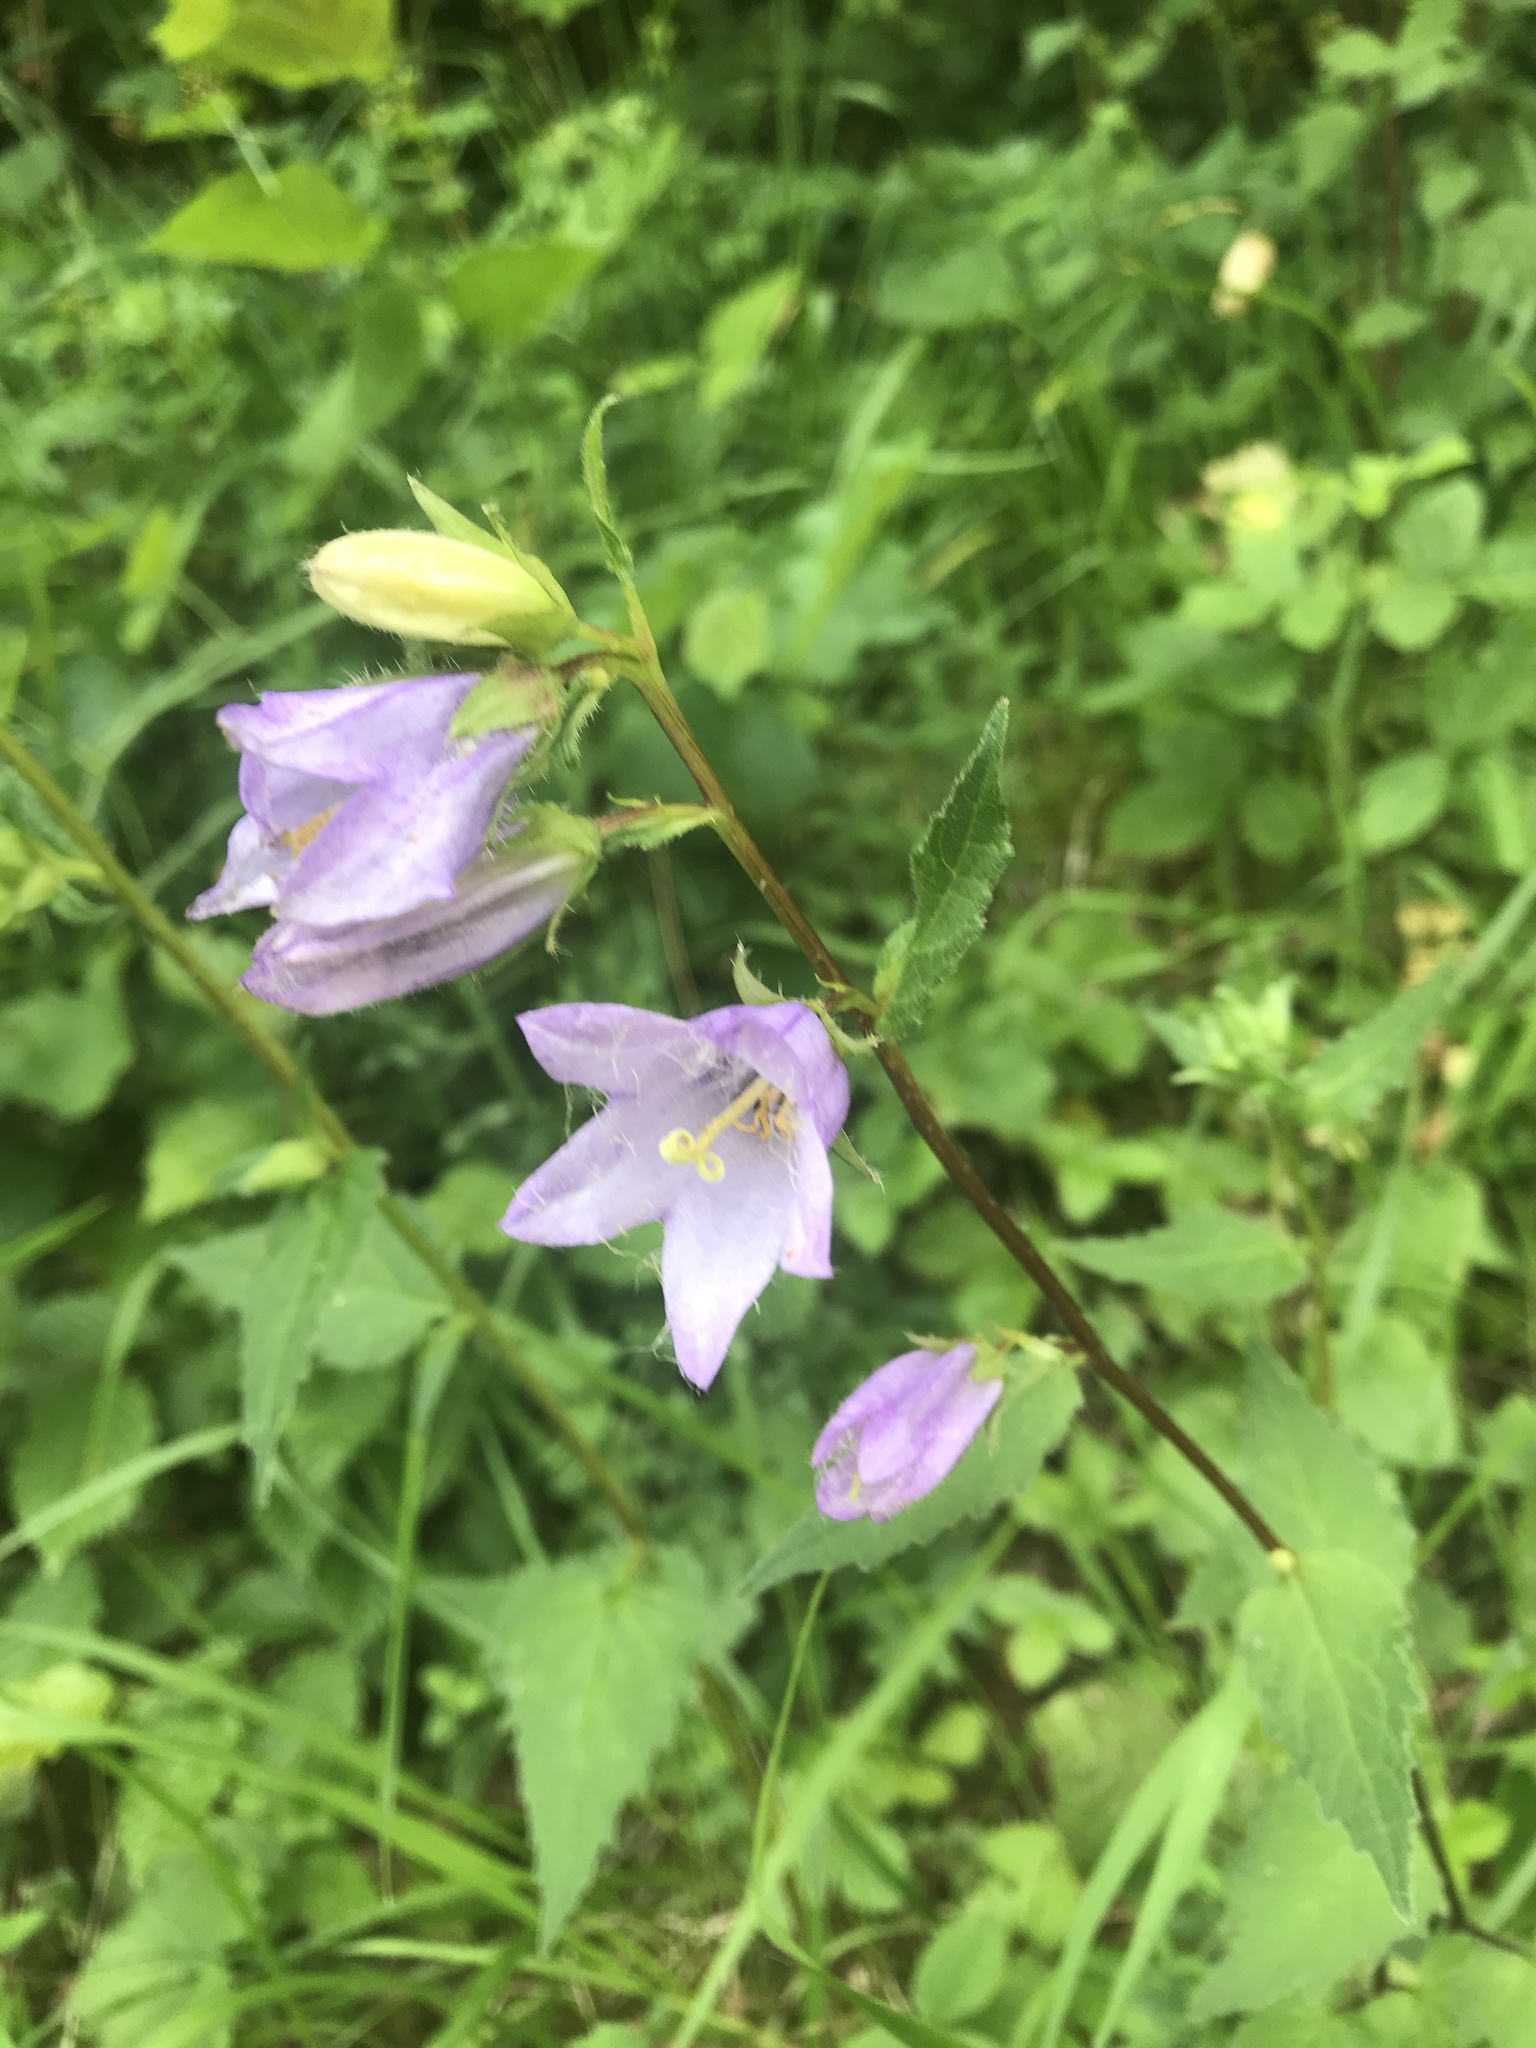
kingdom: Plantae
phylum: Tracheophyta
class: Magnoliopsida
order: Asterales
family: Campanulaceae
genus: Campanula
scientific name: Campanula trachelium
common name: Nettle-leaved bellflower
